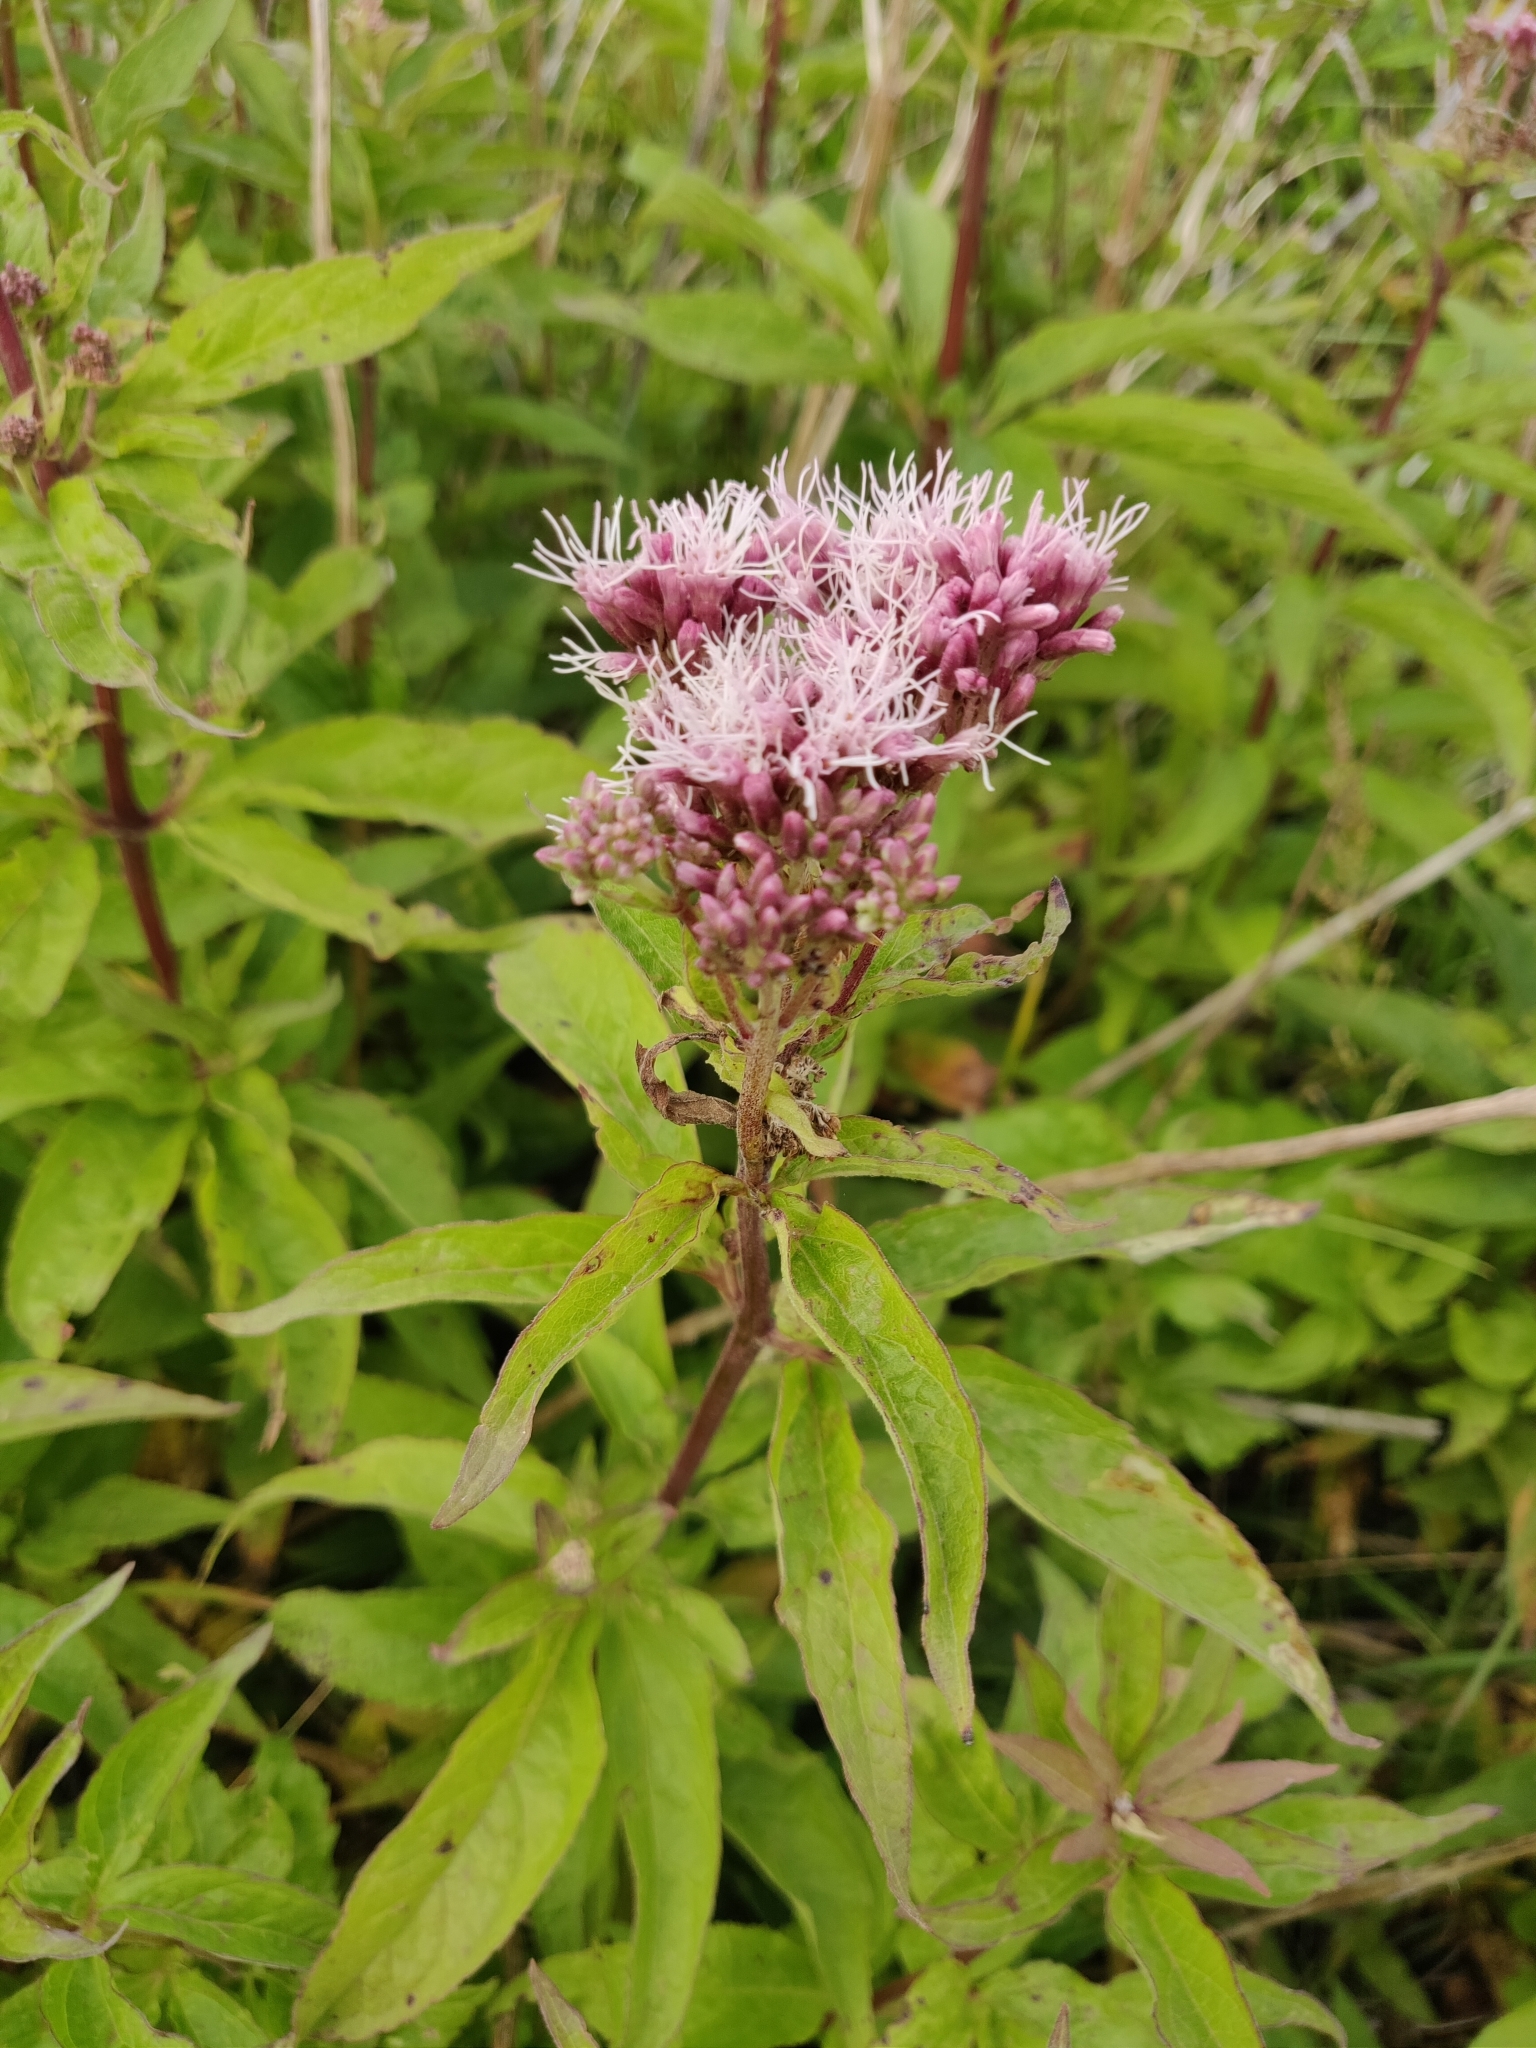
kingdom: Plantae
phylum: Tracheophyta
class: Magnoliopsida
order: Asterales
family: Asteraceae
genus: Eupatorium
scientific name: Eupatorium cannabinum
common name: Hemp-agrimony
